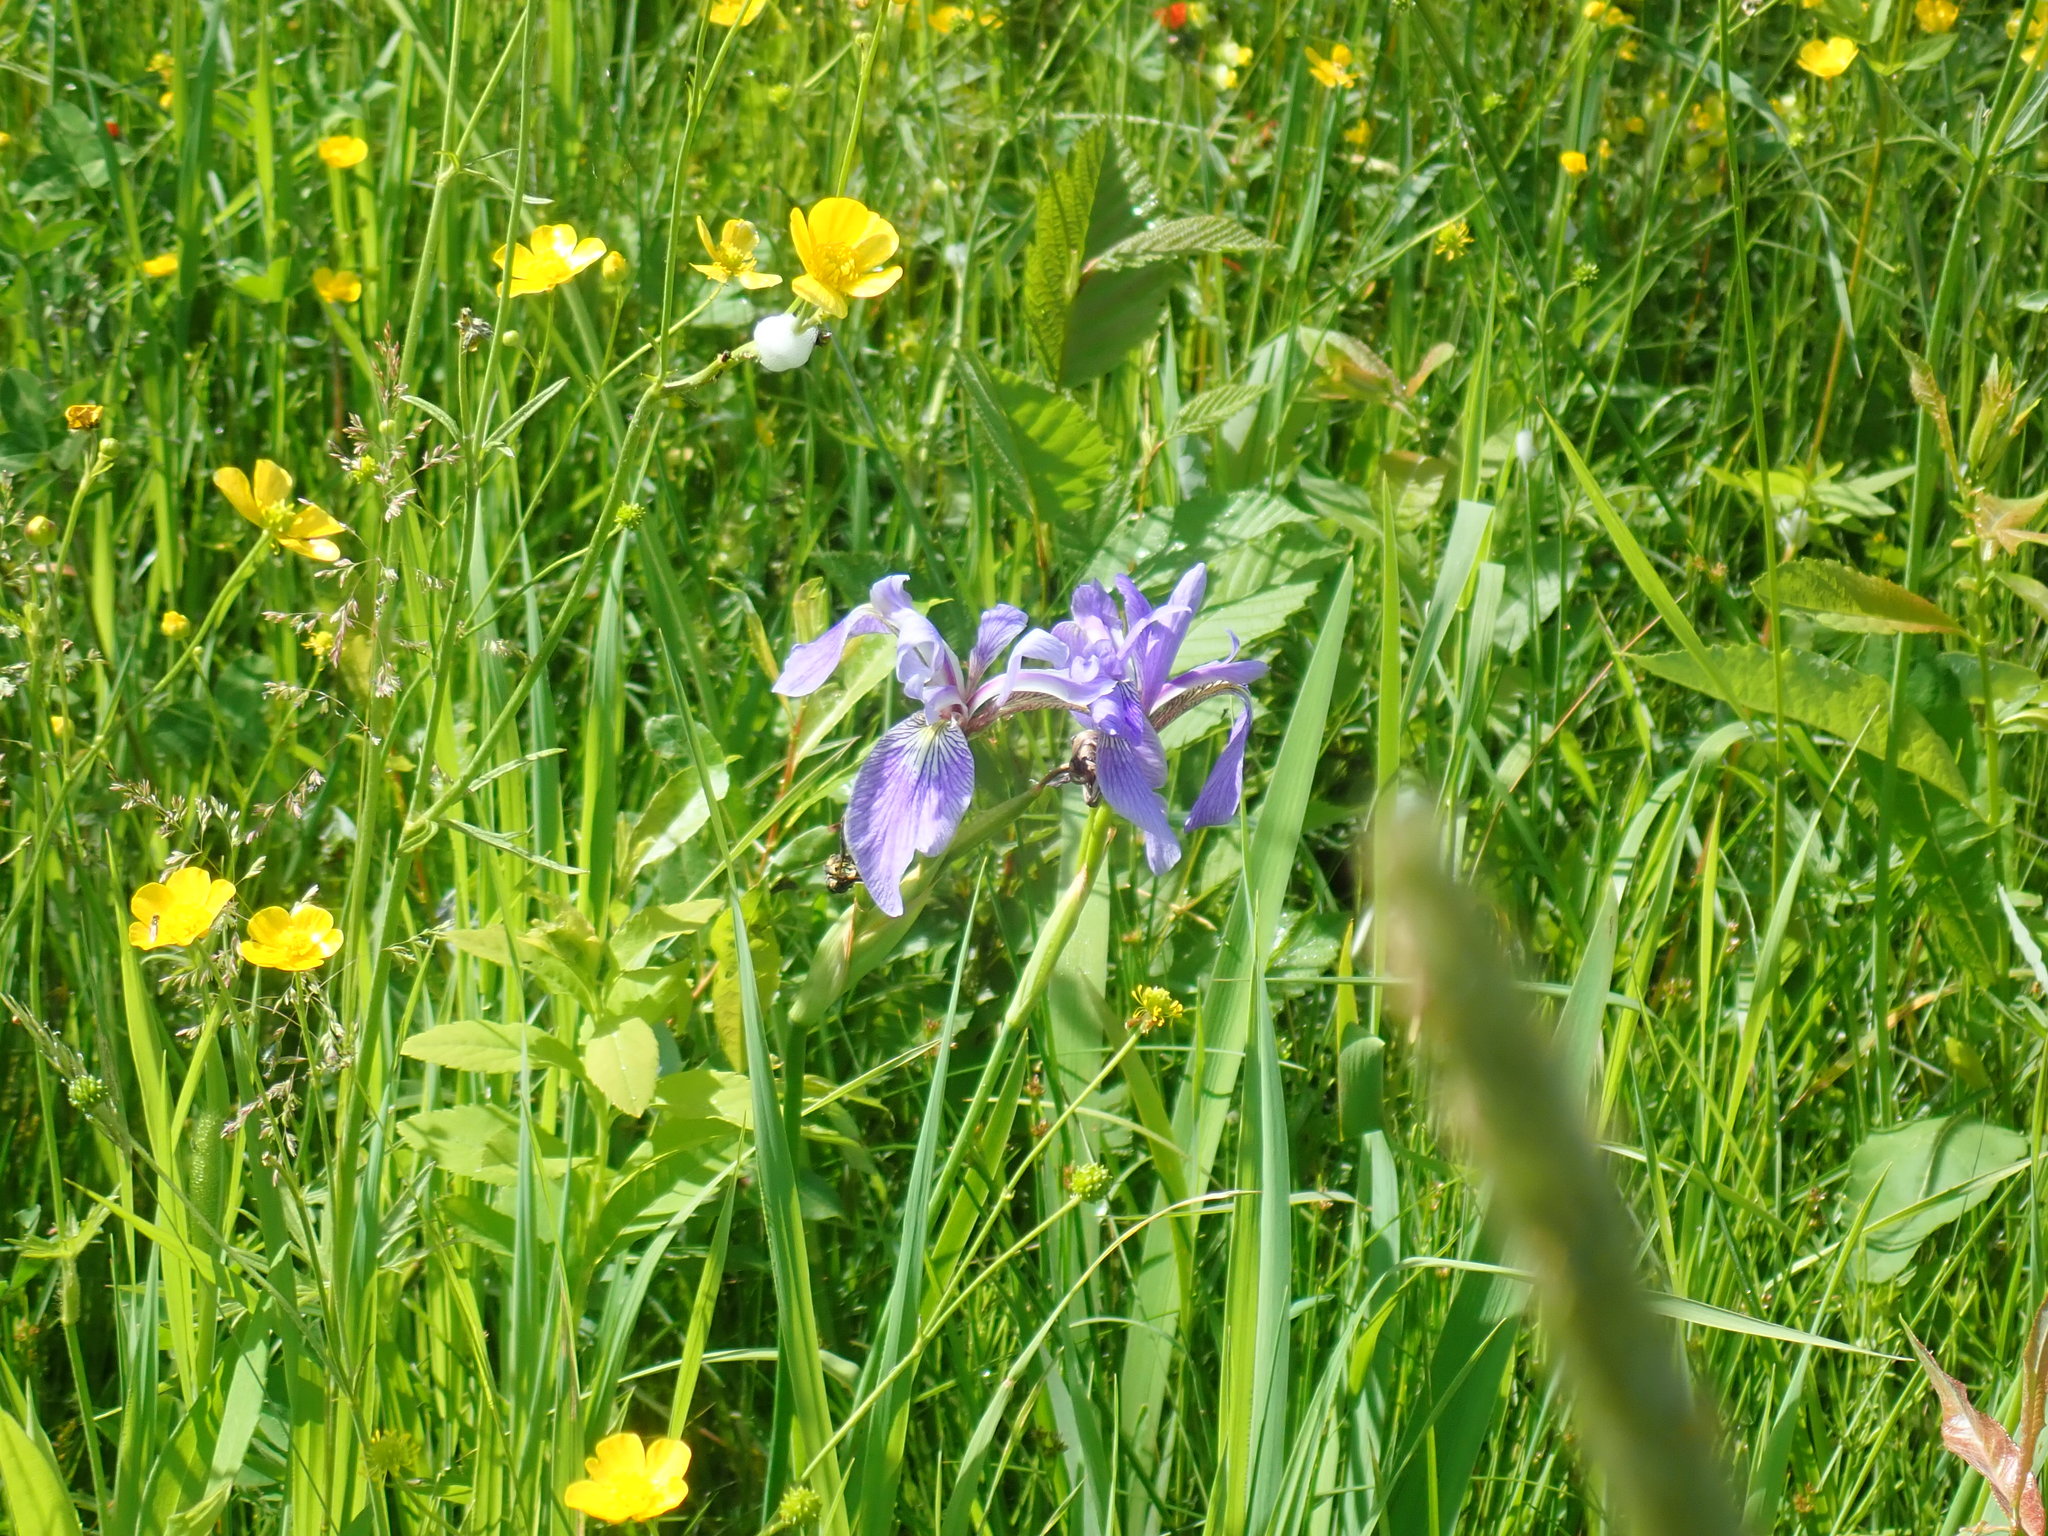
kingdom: Plantae
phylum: Tracheophyta
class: Liliopsida
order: Asparagales
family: Iridaceae
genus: Iris
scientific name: Iris versicolor
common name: Purple iris
